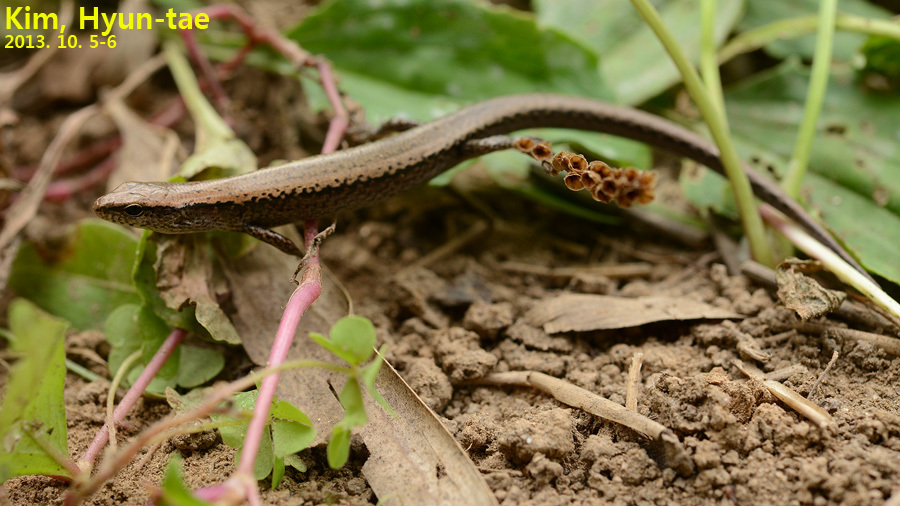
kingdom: Animalia
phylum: Chordata
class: Squamata
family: Scincidae
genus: Scincella
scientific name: Scincella vandenburghi
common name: Tsushima smooth skink
